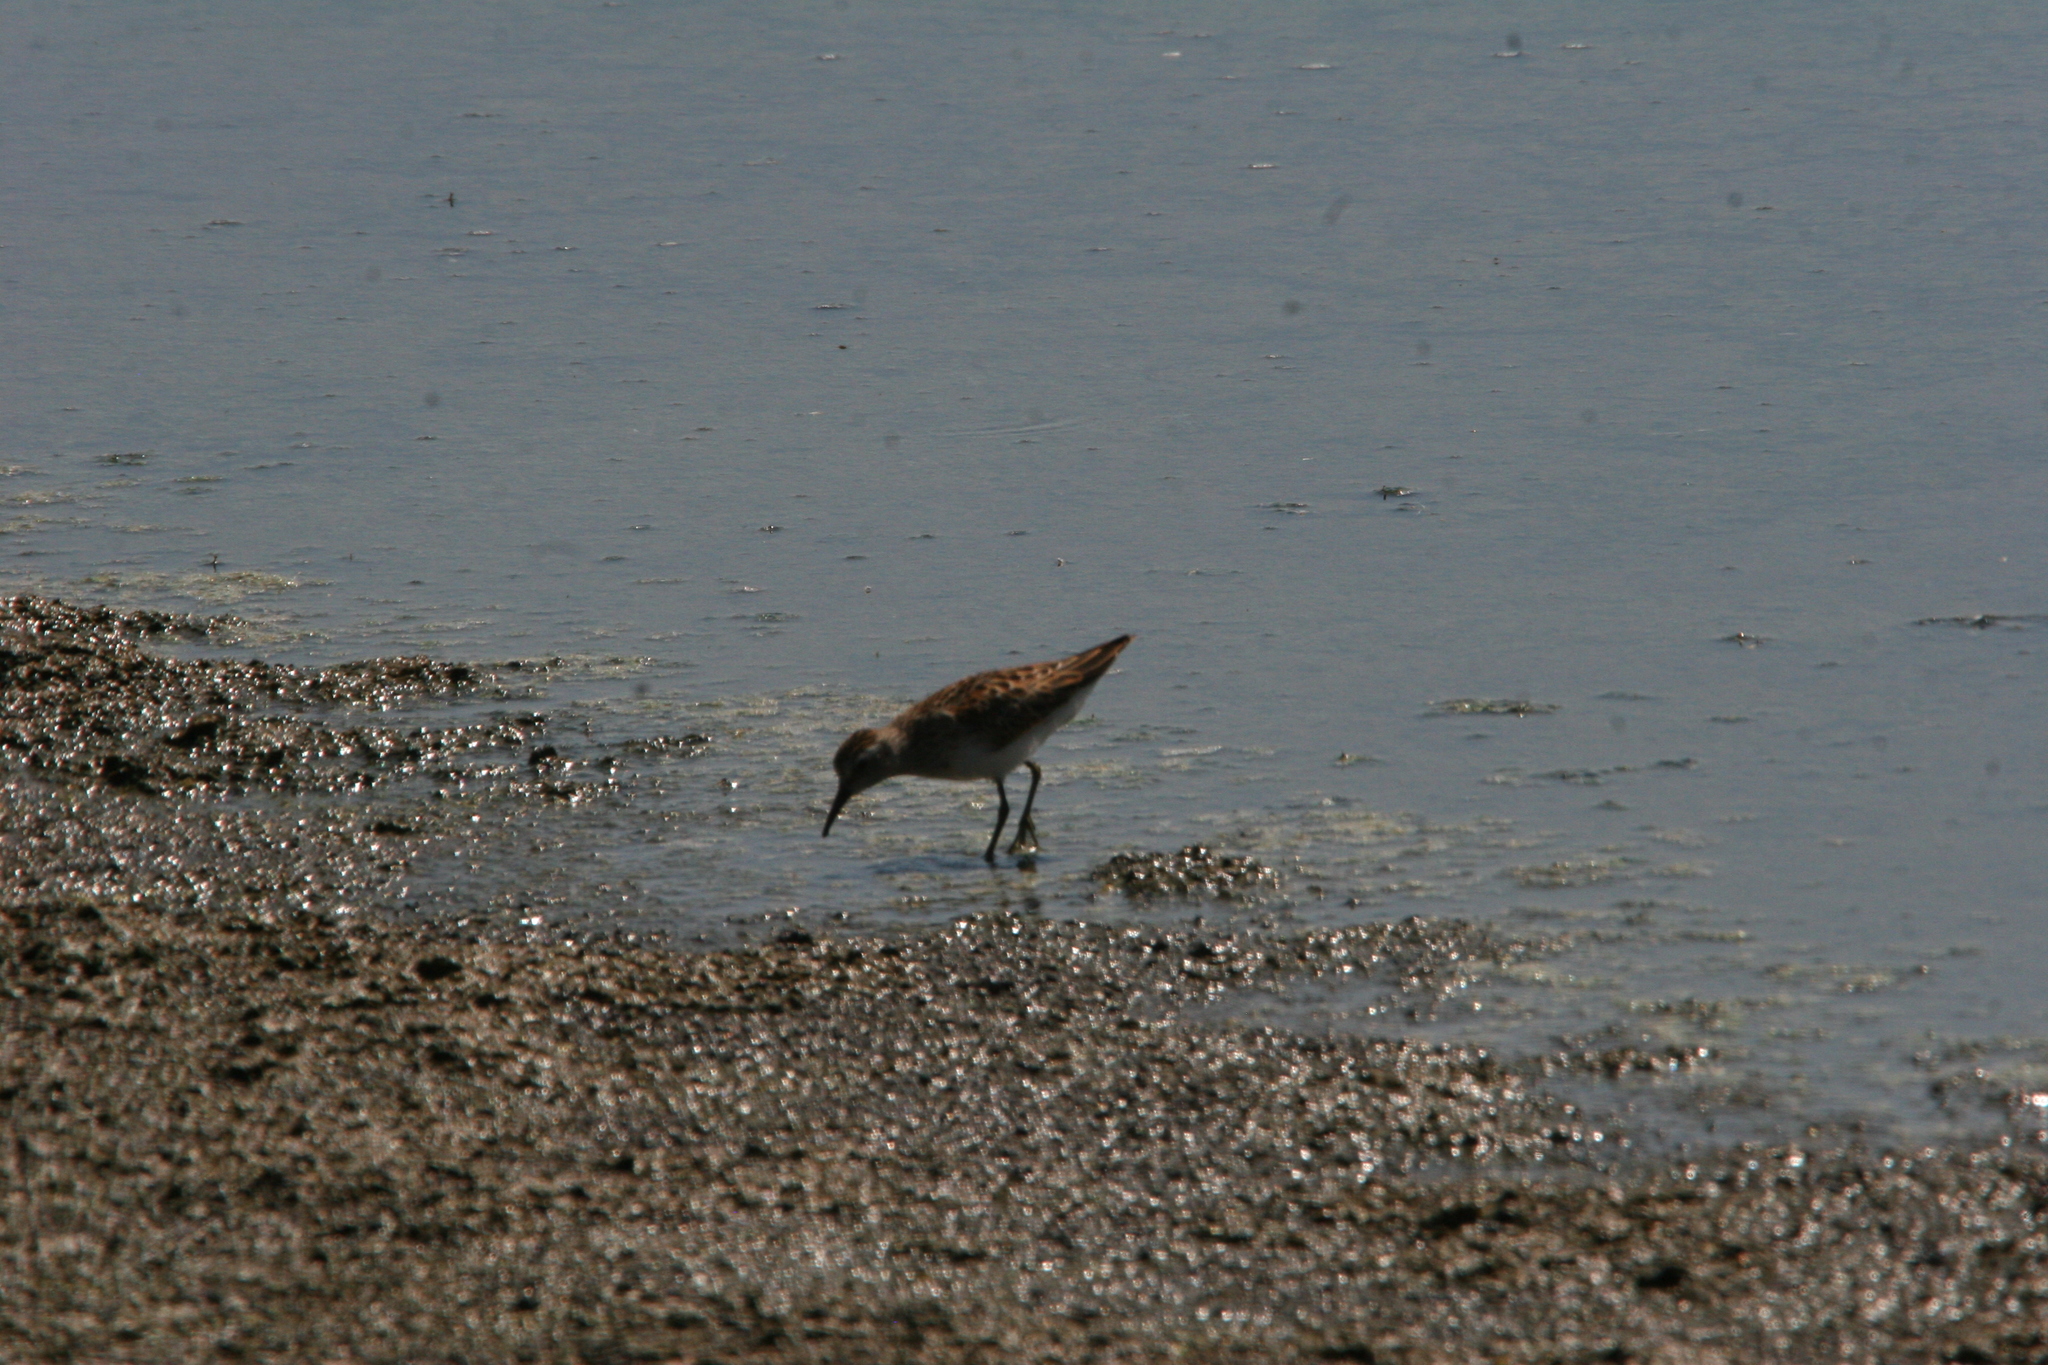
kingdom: Animalia
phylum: Chordata
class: Aves
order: Charadriiformes
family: Scolopacidae
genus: Calidris
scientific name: Calidris minutilla
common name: Least sandpiper
